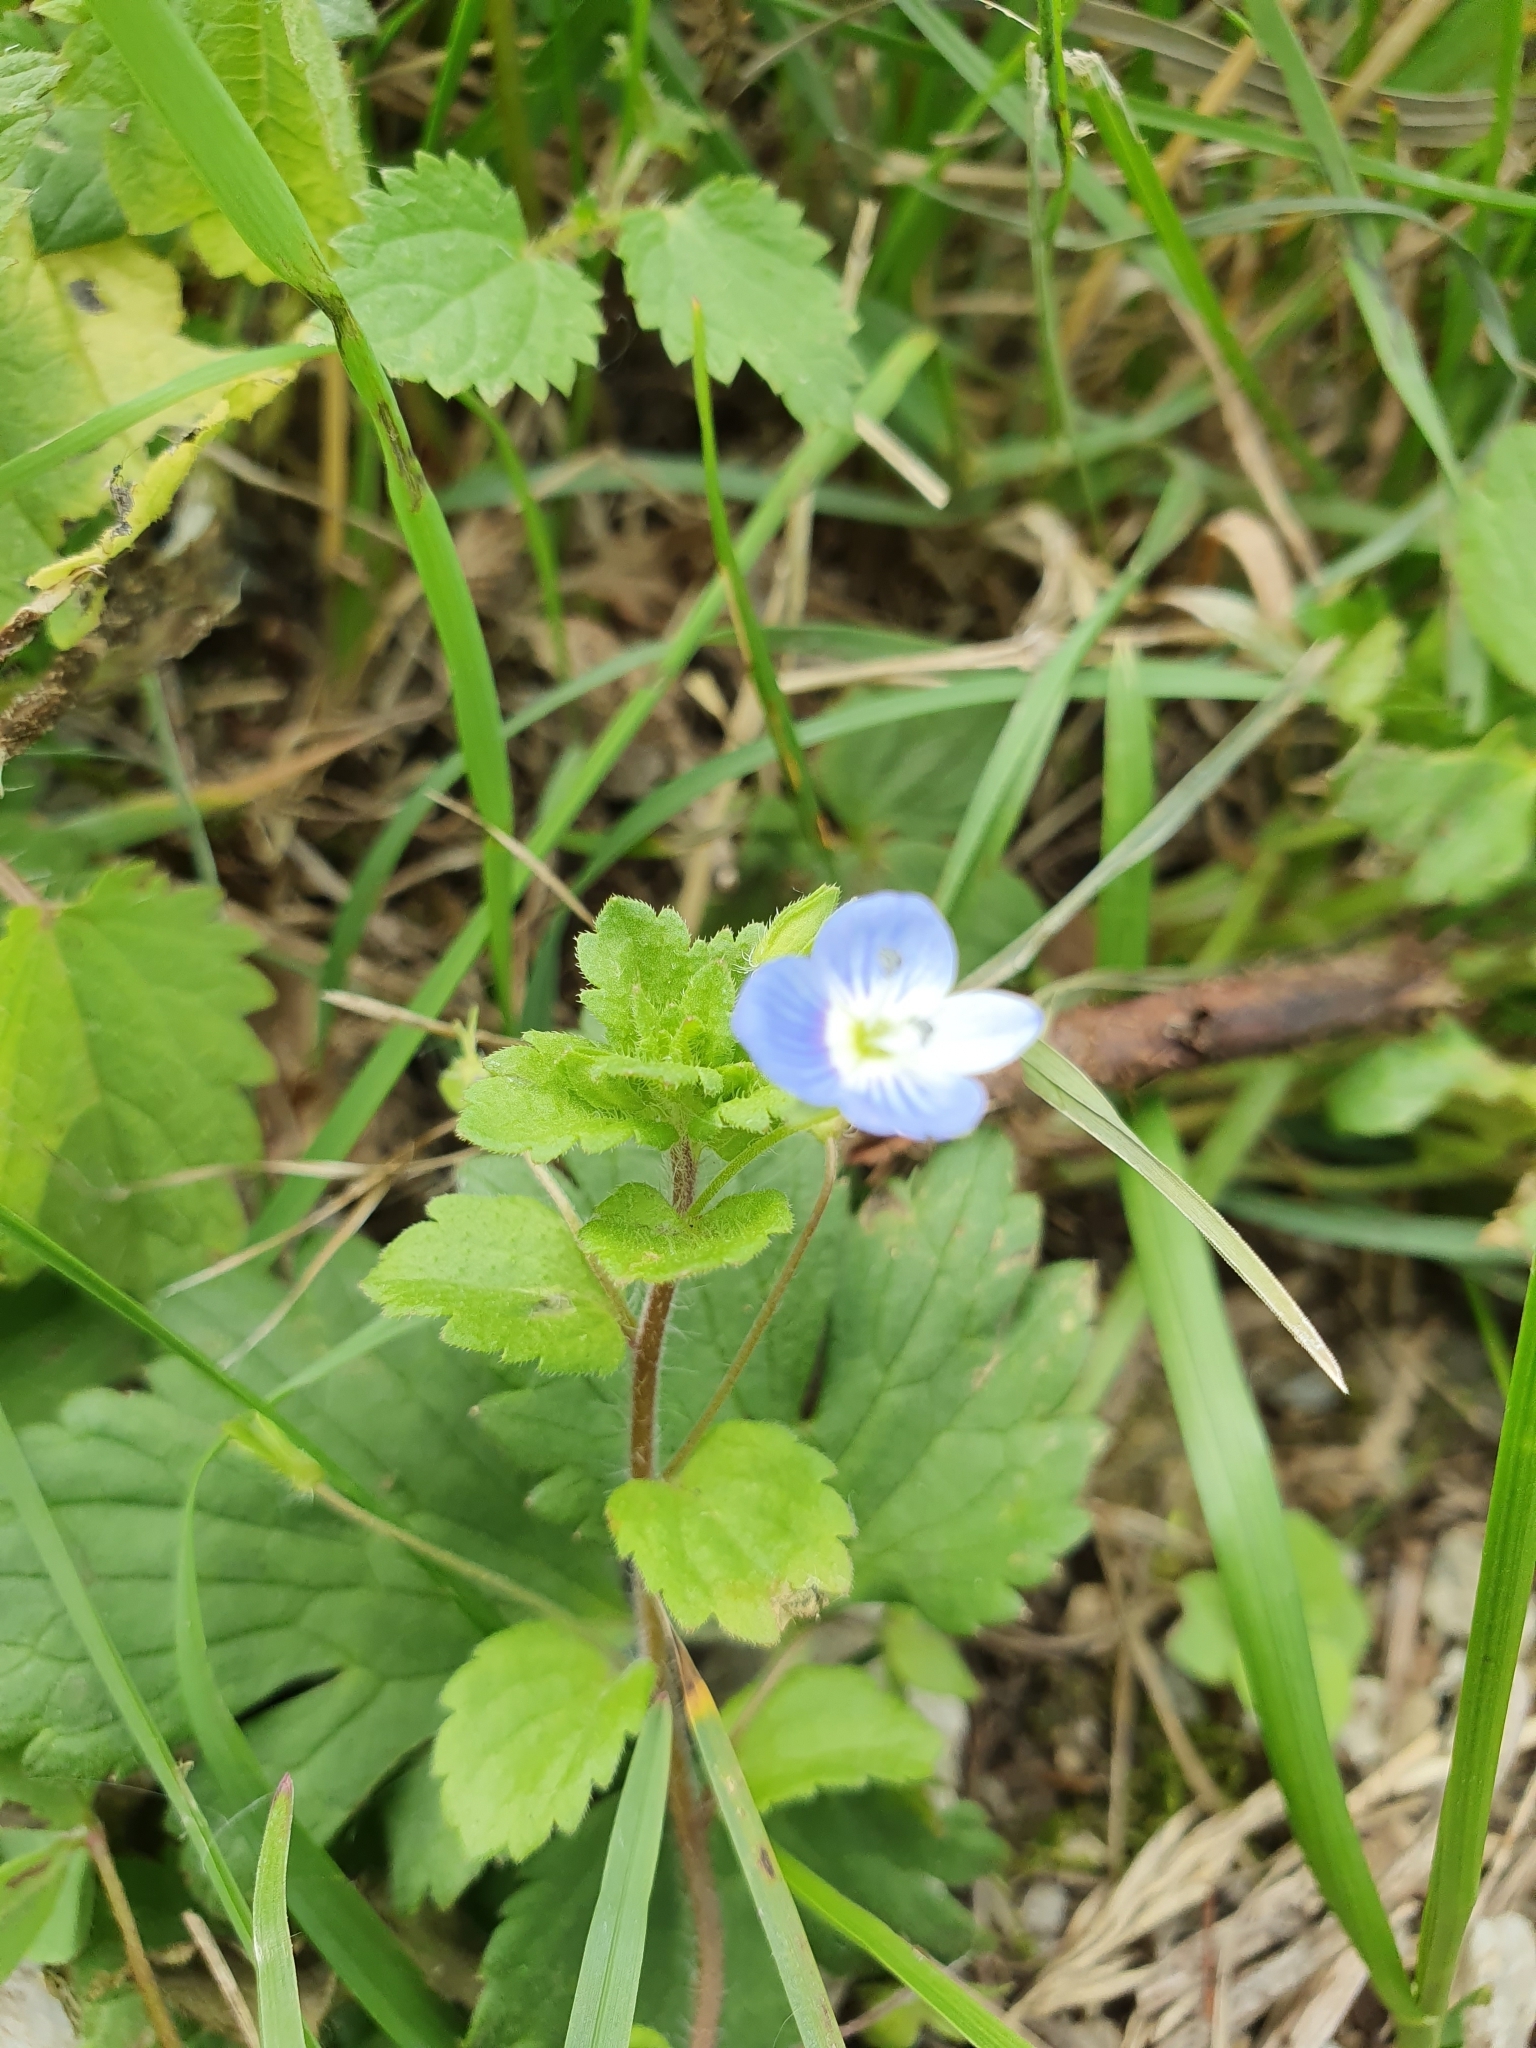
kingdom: Plantae
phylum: Tracheophyta
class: Magnoliopsida
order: Lamiales
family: Plantaginaceae
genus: Veronica
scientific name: Veronica persica
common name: Common field-speedwell
